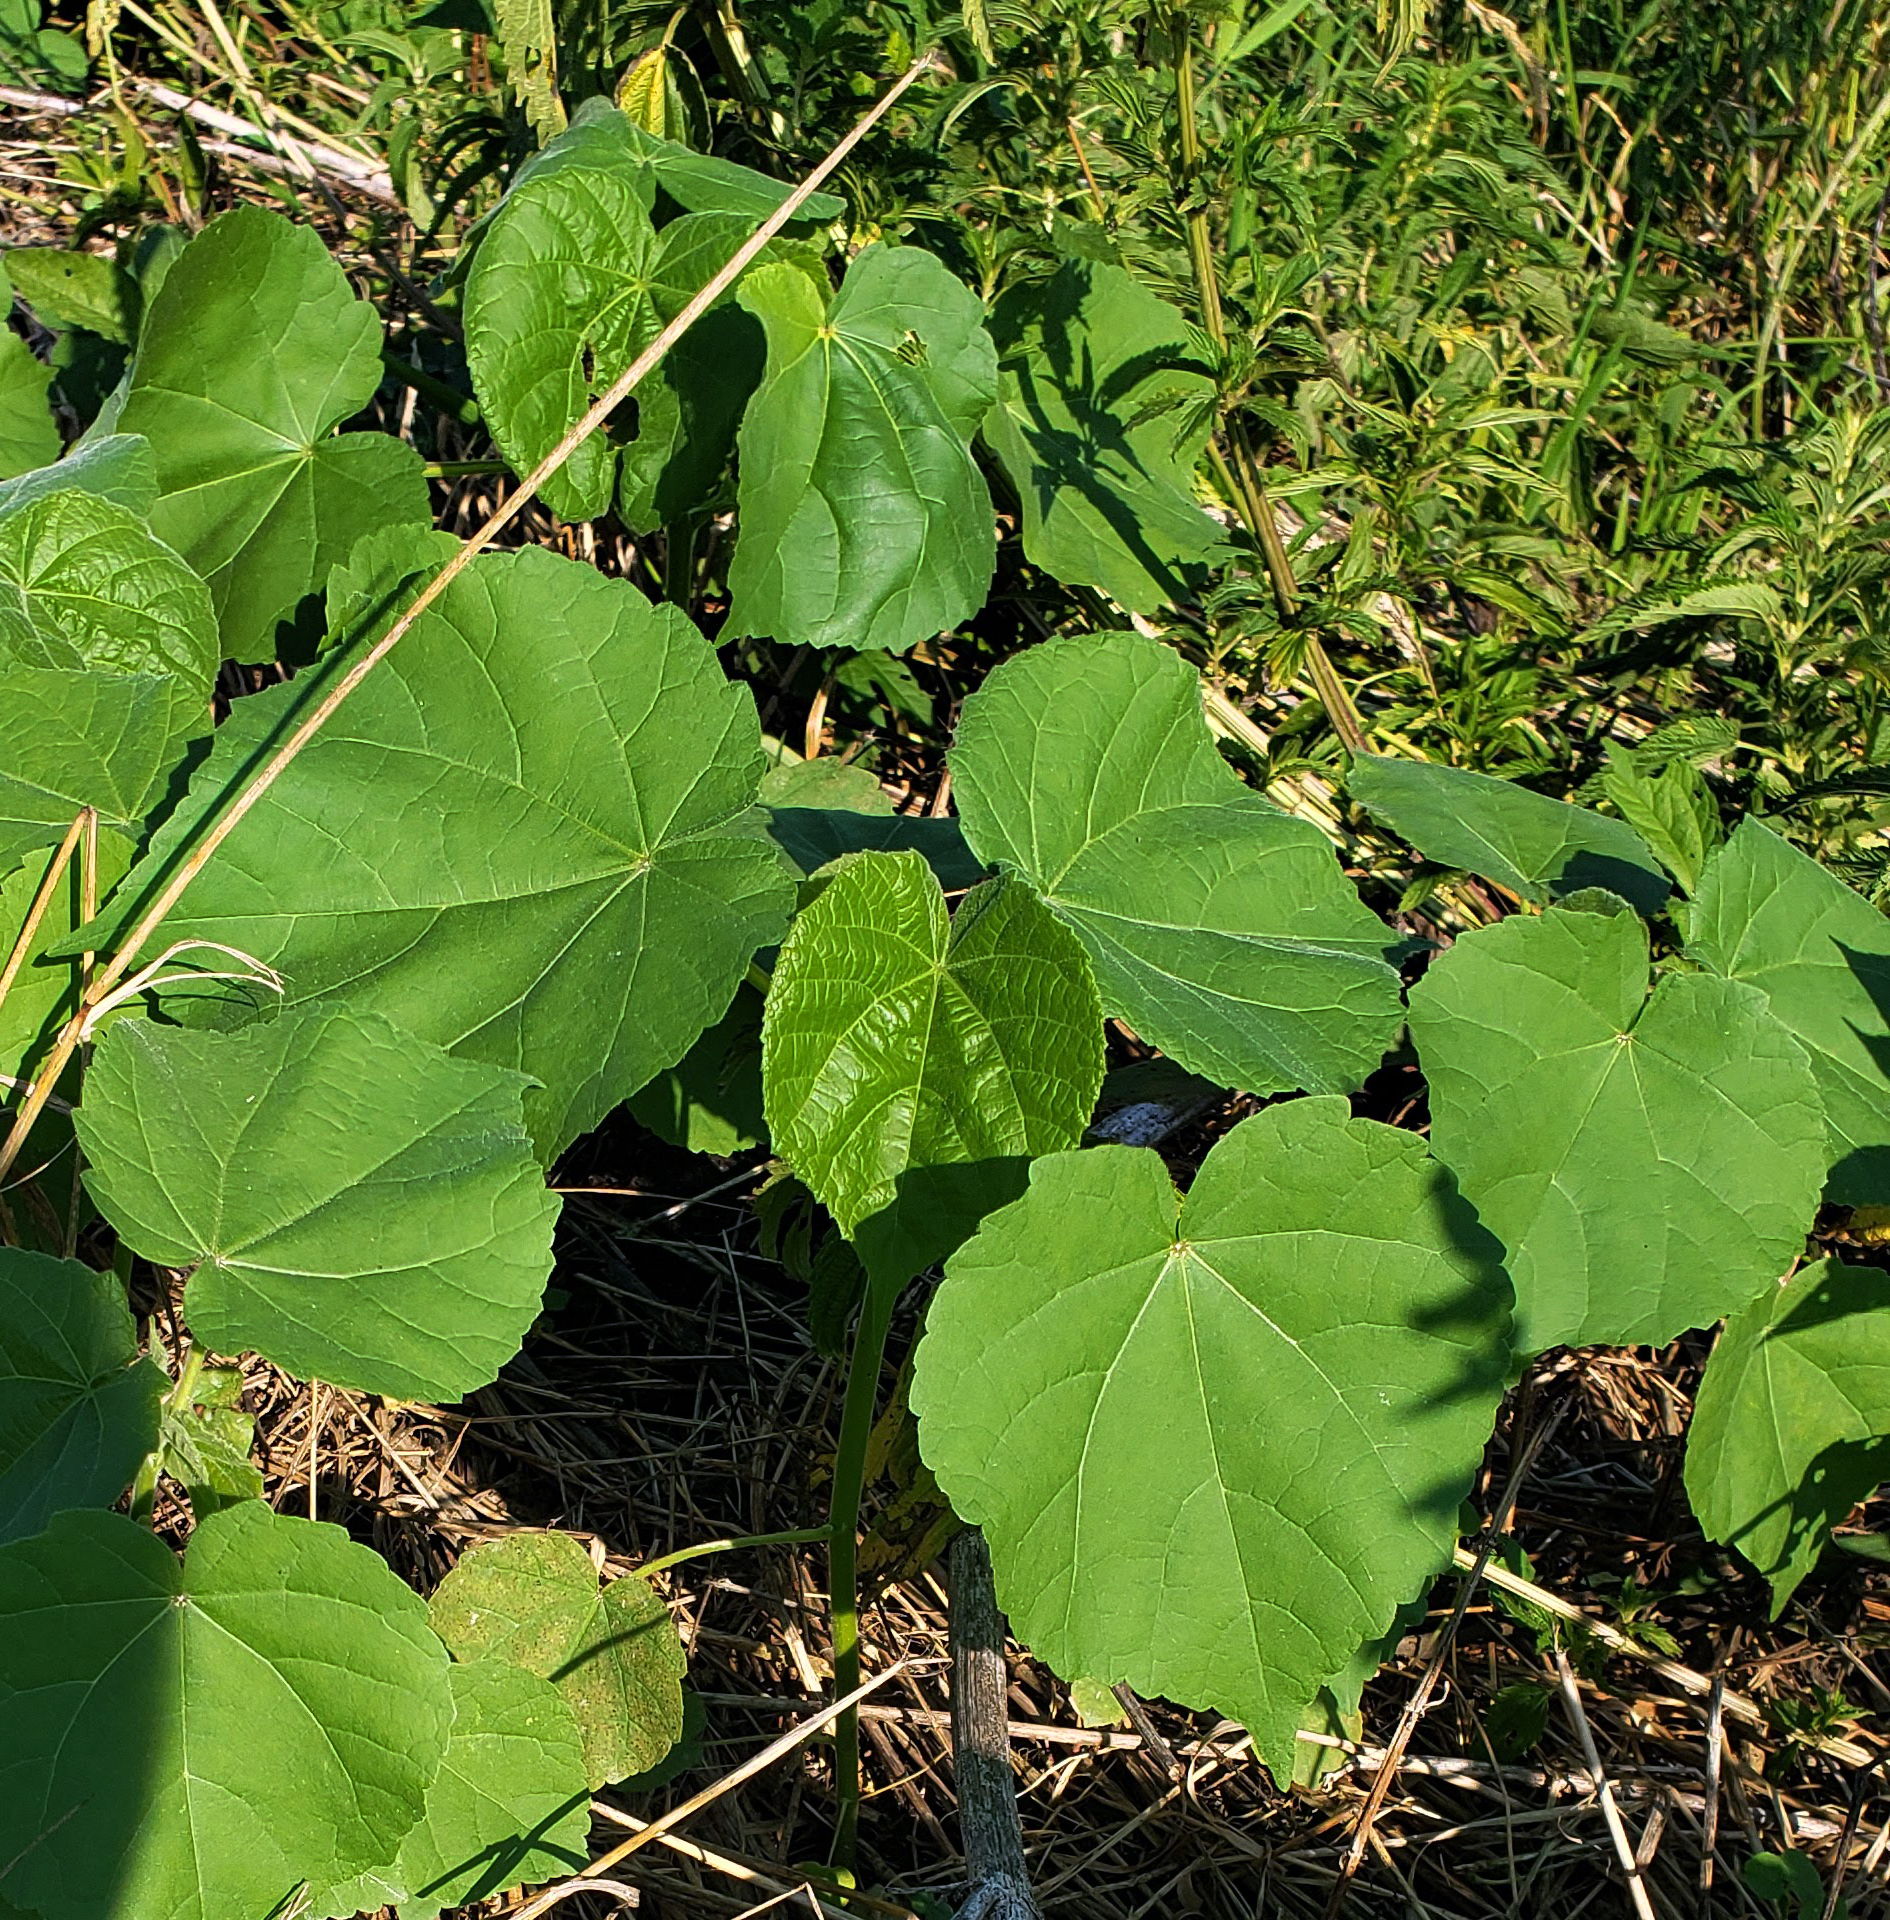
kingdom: Plantae
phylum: Tracheophyta
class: Magnoliopsida
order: Malvales
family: Malvaceae
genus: Abutilon
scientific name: Abutilon theophrasti
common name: Velvetleaf
